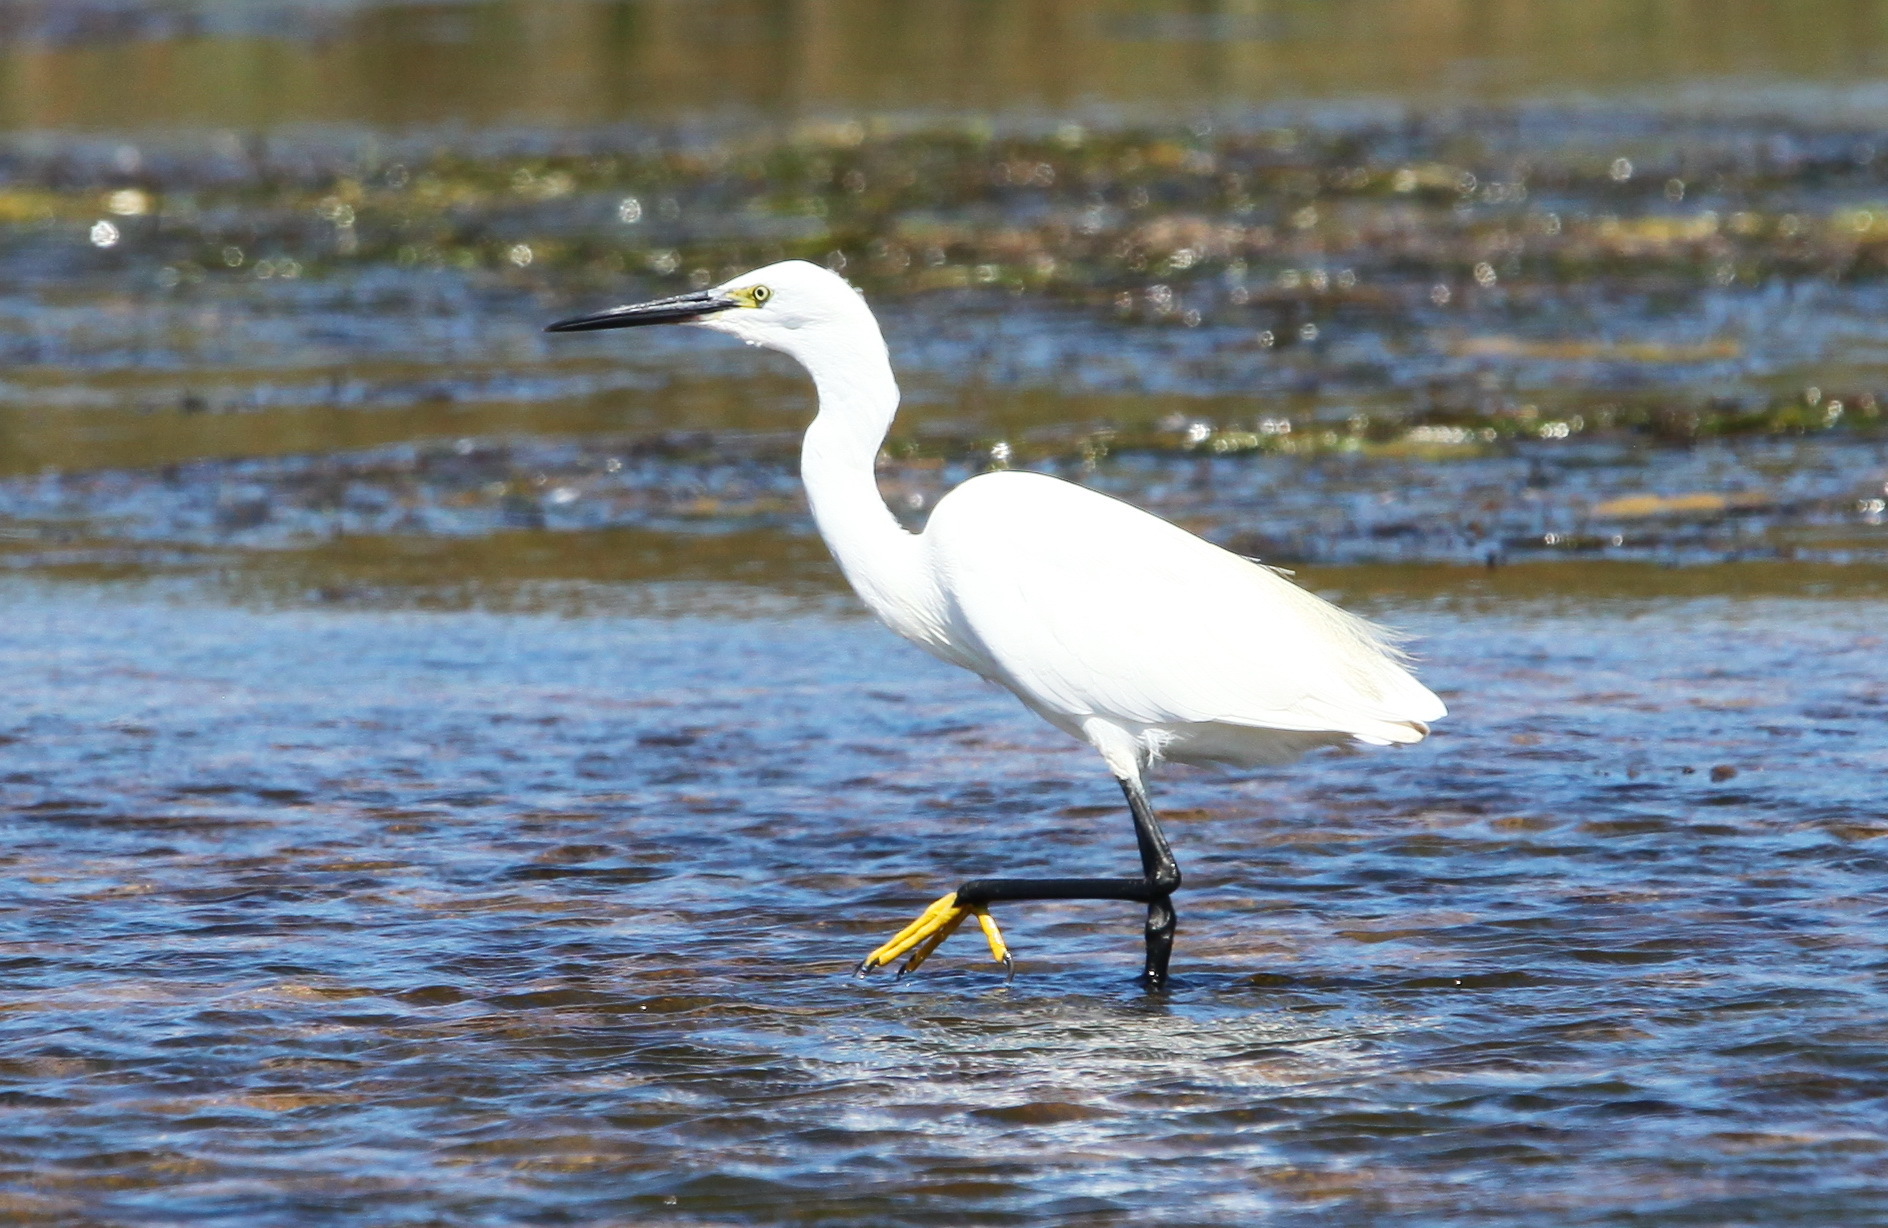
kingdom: Animalia
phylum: Chordata
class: Aves
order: Pelecaniformes
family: Ardeidae
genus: Egretta
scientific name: Egretta garzetta
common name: Little egret
